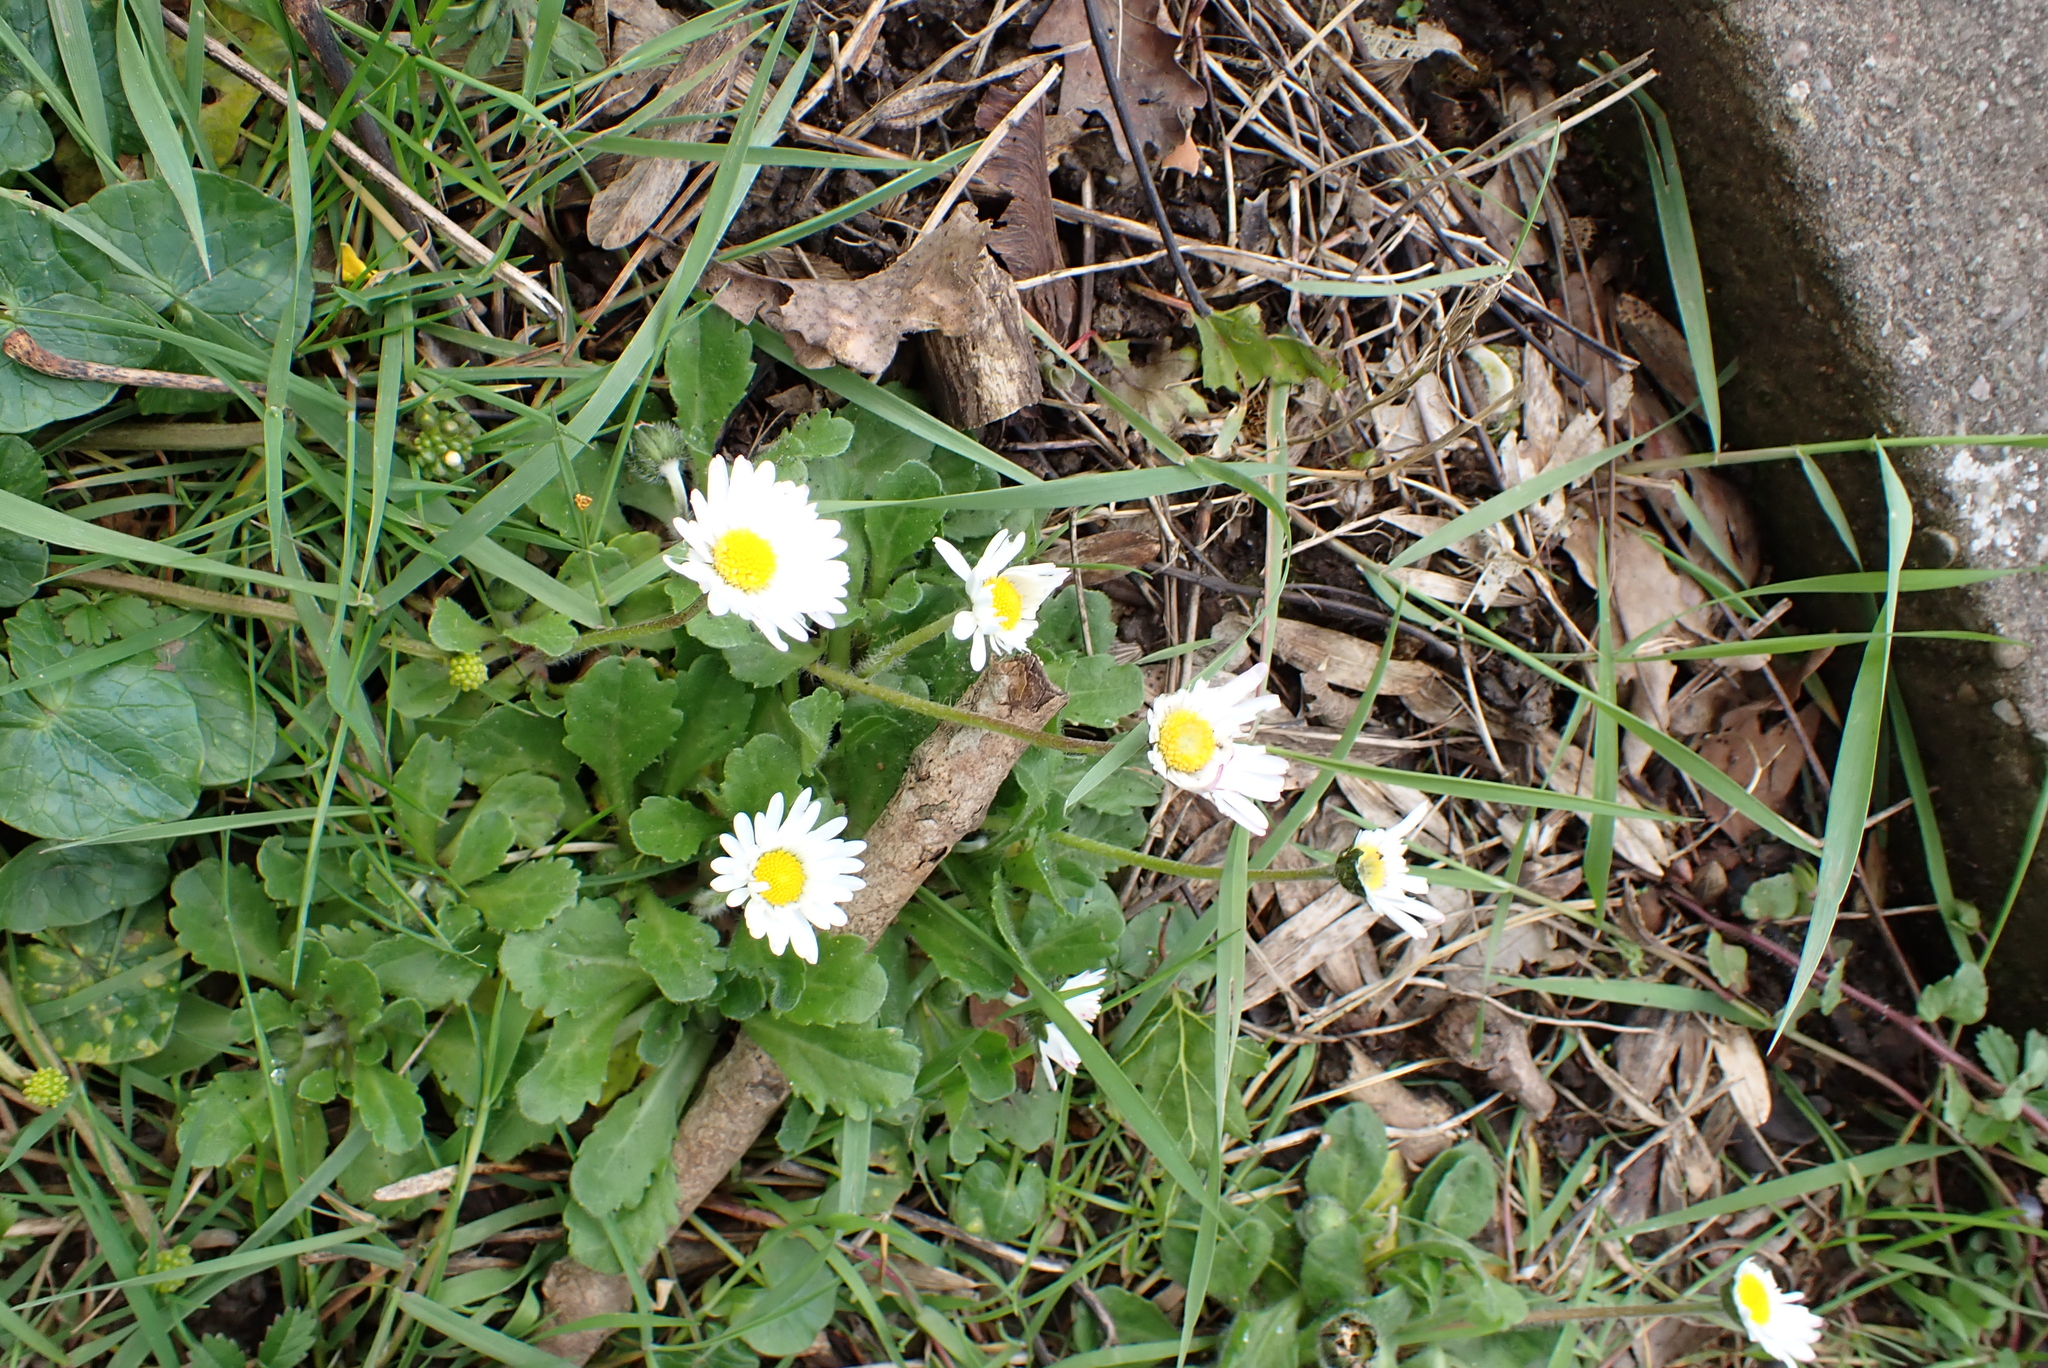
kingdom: Plantae
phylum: Tracheophyta
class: Magnoliopsida
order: Asterales
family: Asteraceae
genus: Bellis
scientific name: Bellis perennis
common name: Lawndaisy
